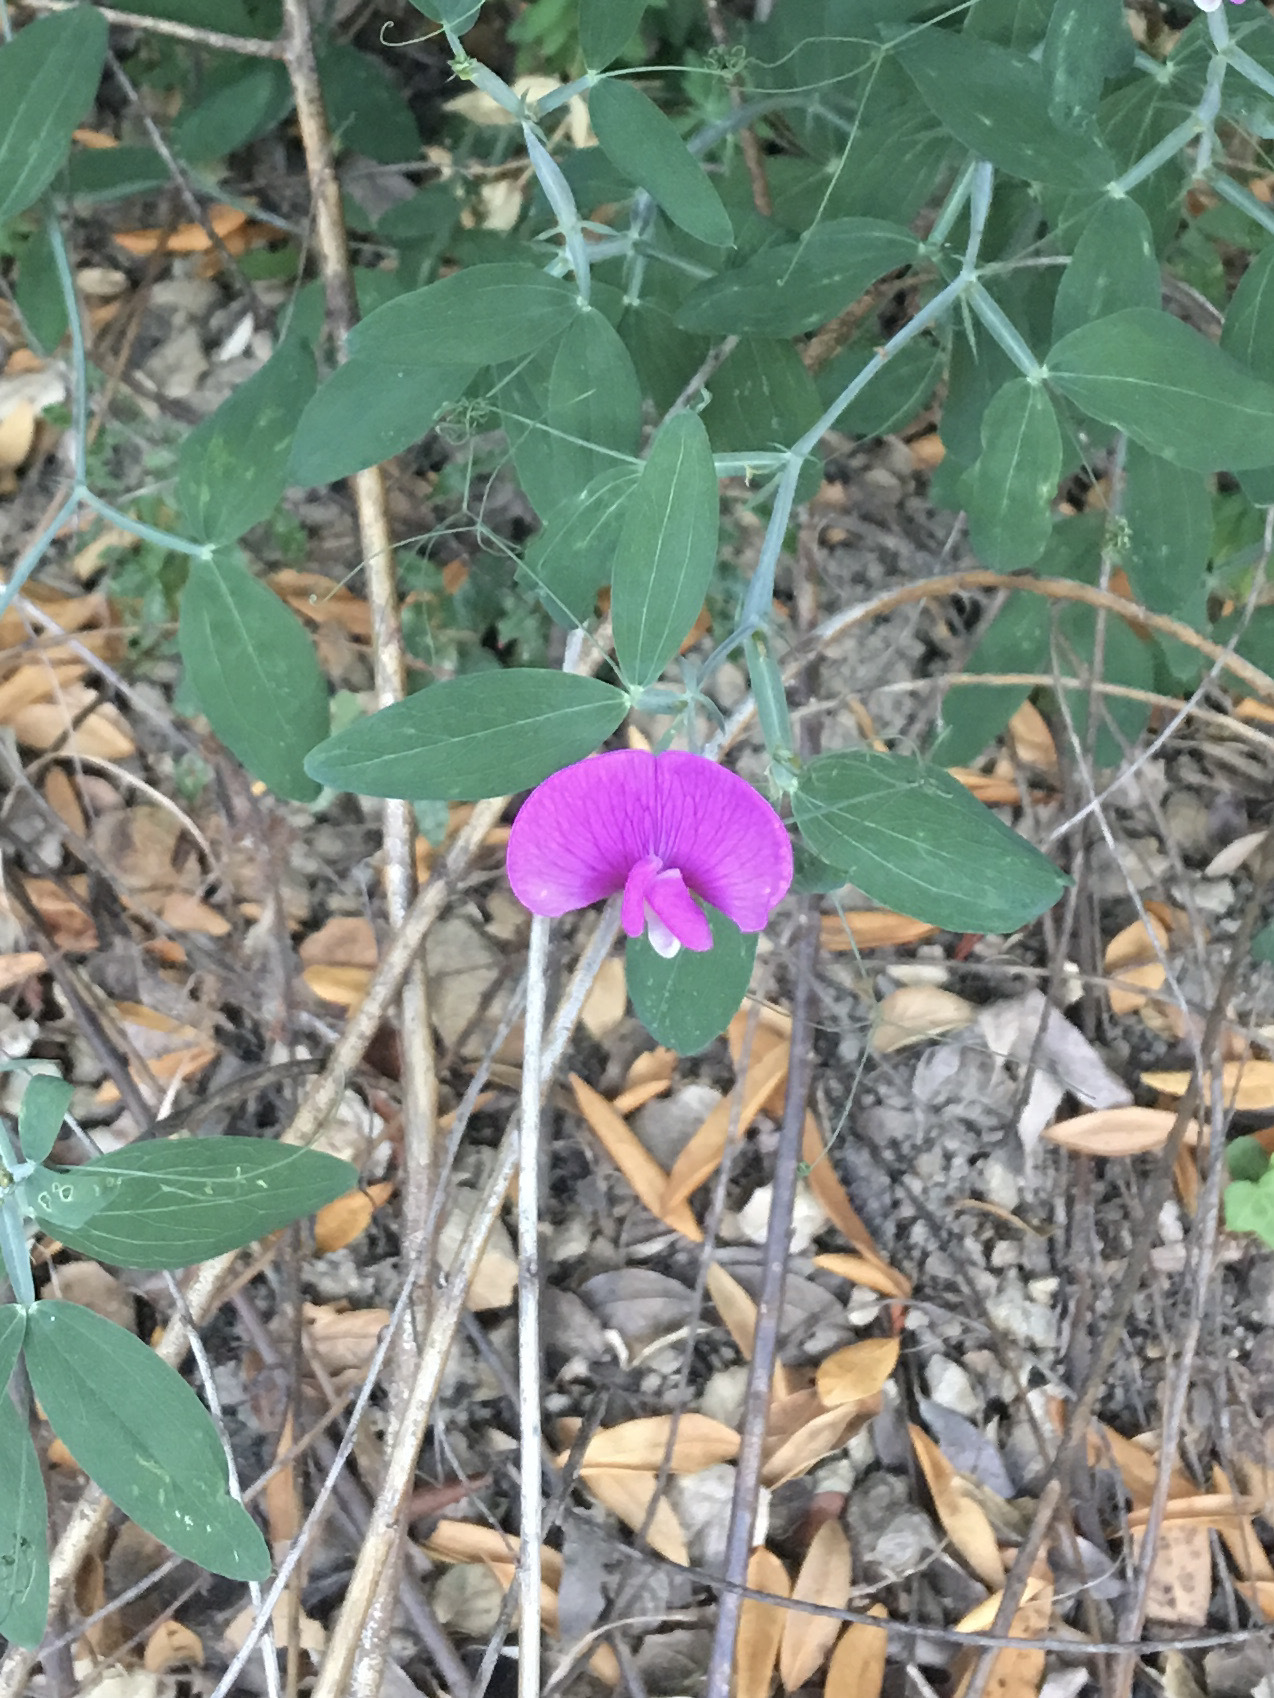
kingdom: Plantae
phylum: Tracheophyta
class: Magnoliopsida
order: Fabales
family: Fabaceae
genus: Lathyrus
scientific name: Lathyrus latifolius
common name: Perennial pea
